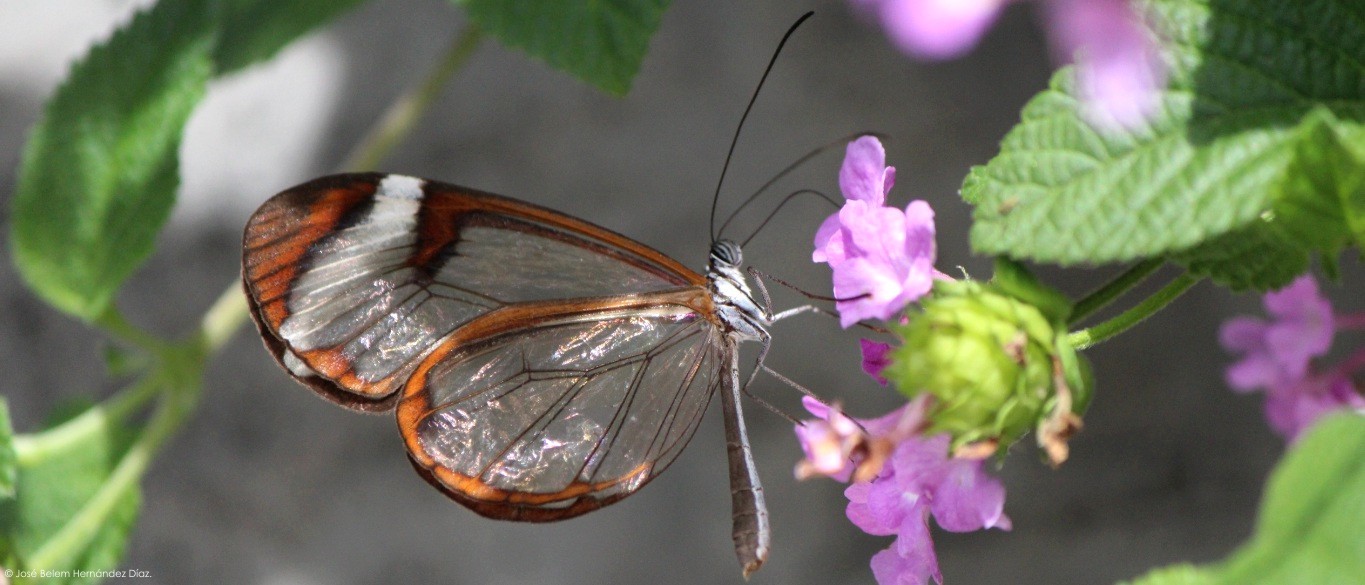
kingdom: Animalia
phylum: Arthropoda
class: Insecta
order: Lepidoptera
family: Nymphalidae
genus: Greta
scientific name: Greta morgane
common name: Thick-tipped greta
